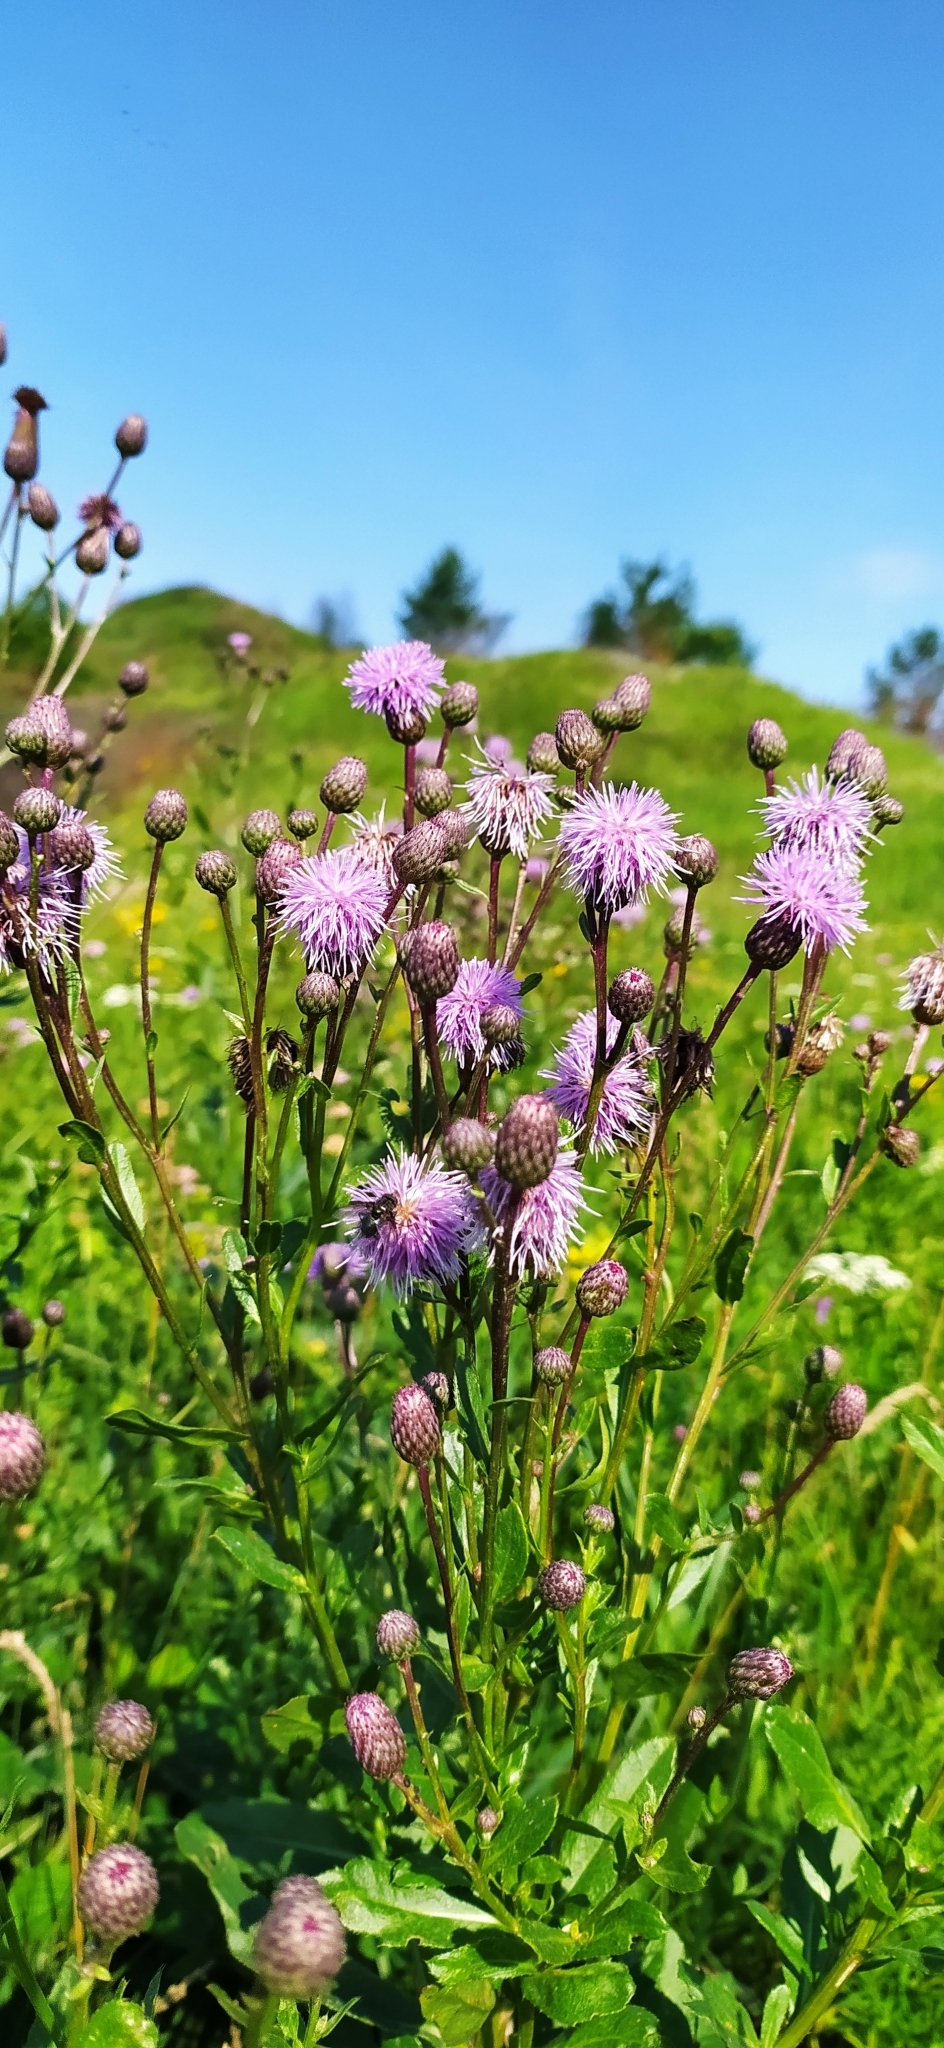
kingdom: Plantae
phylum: Tracheophyta
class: Magnoliopsida
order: Asterales
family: Asteraceae
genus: Cirsium
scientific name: Cirsium arvense
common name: Creeping thistle
